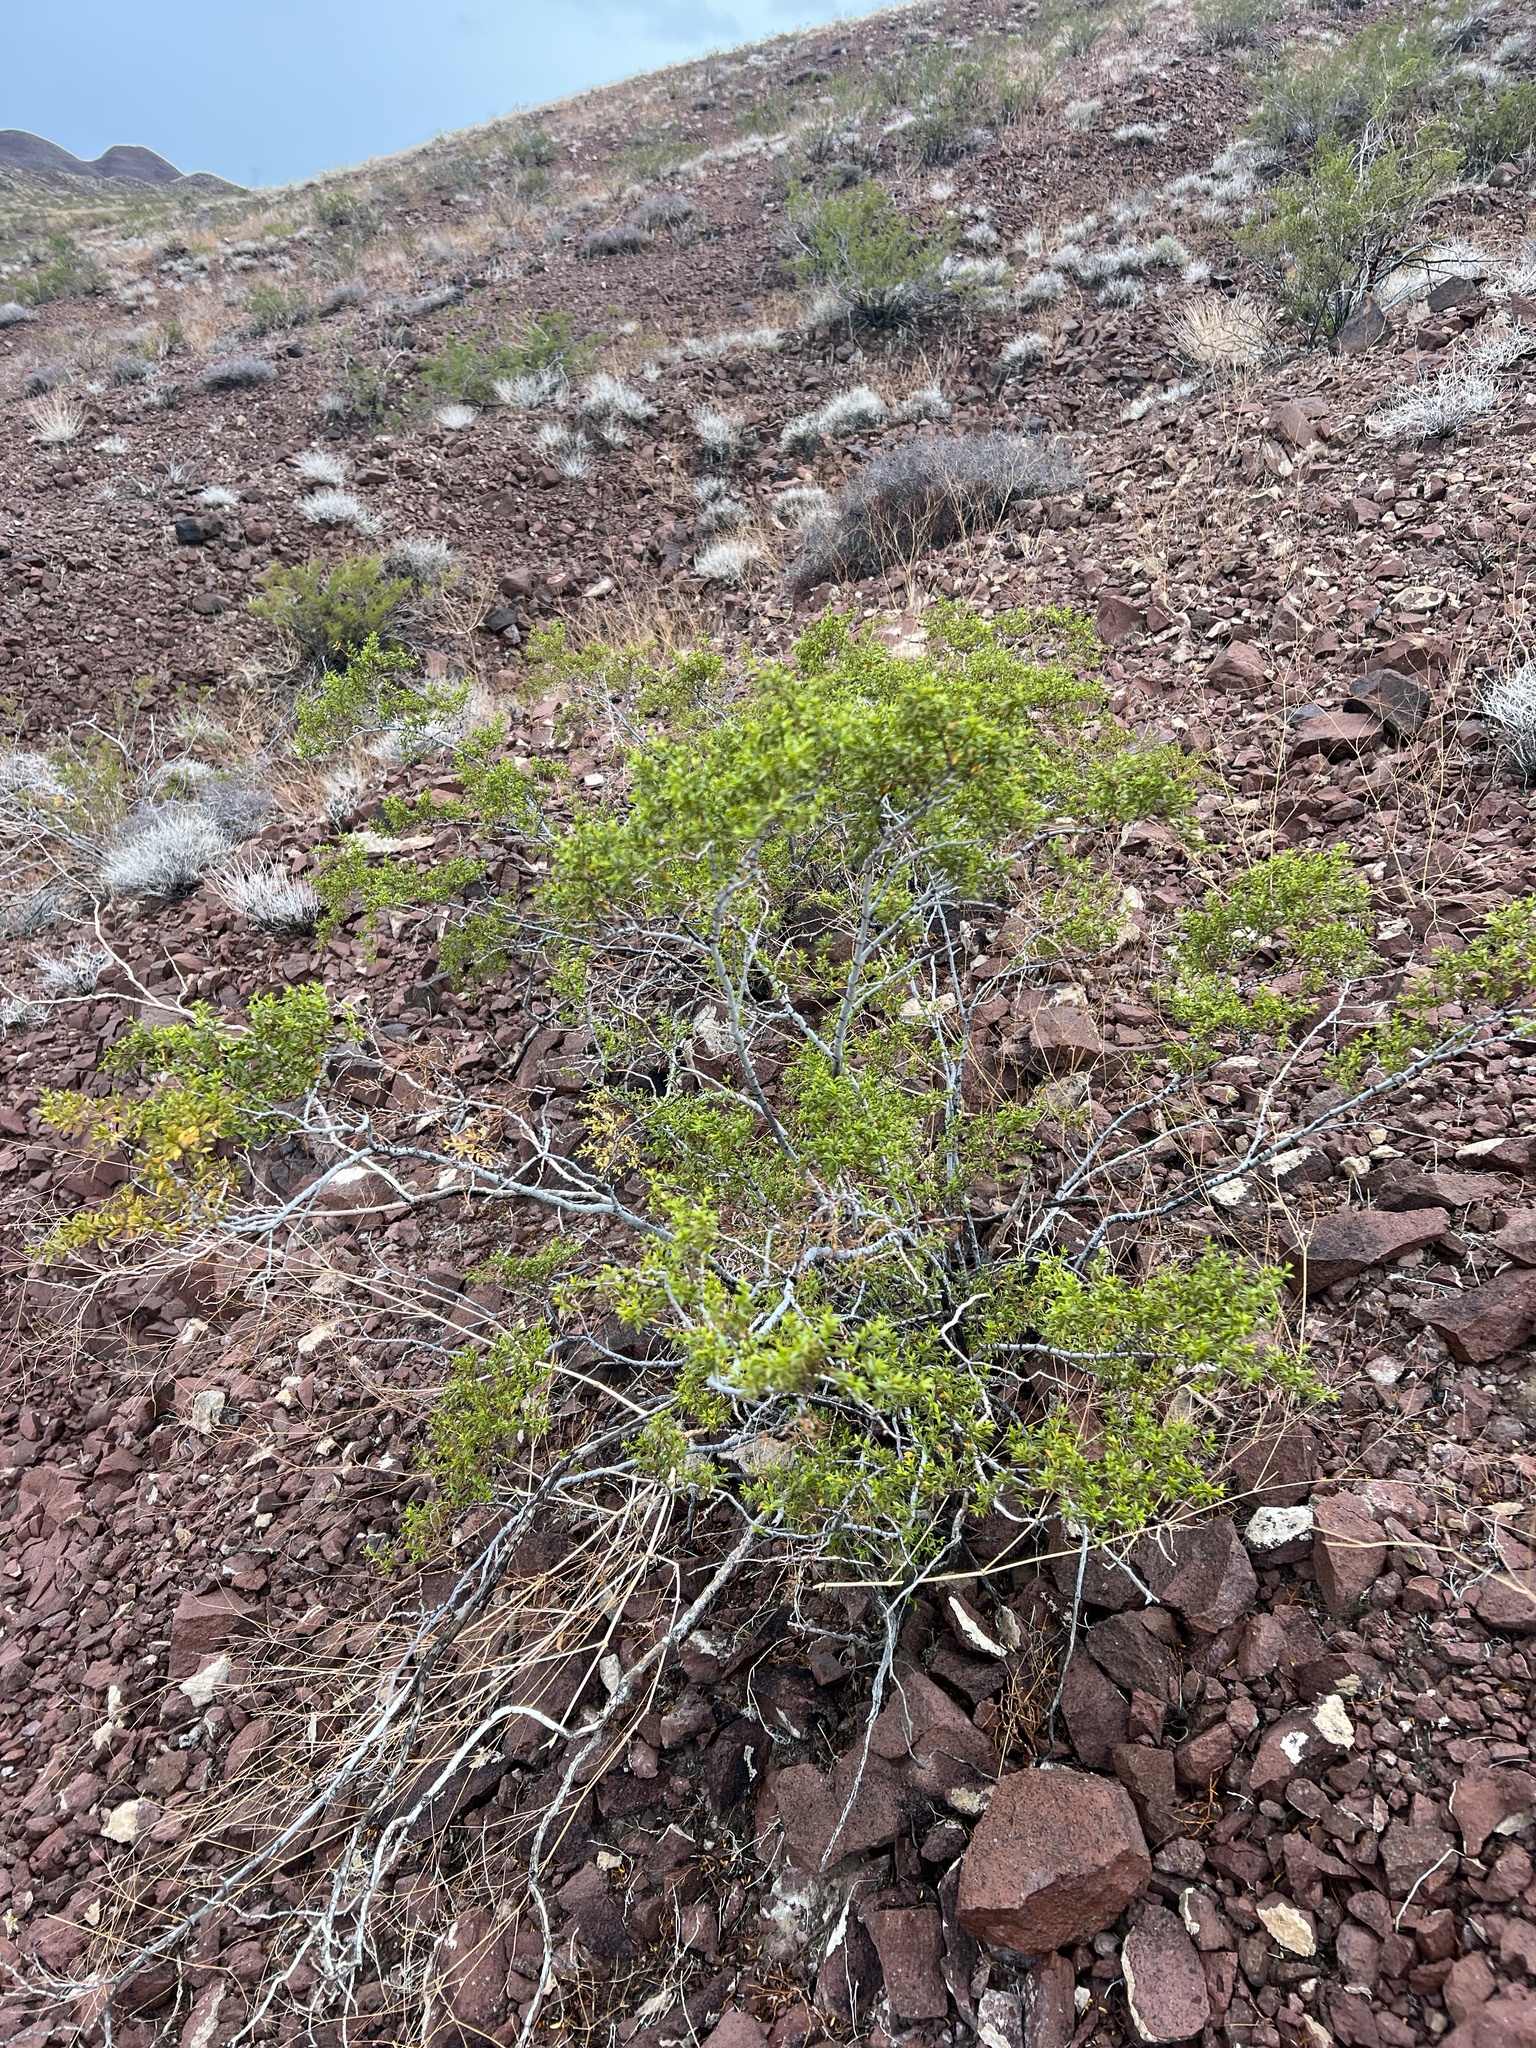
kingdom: Plantae
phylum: Tracheophyta
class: Magnoliopsida
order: Zygophyllales
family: Zygophyllaceae
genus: Larrea
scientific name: Larrea tridentata
